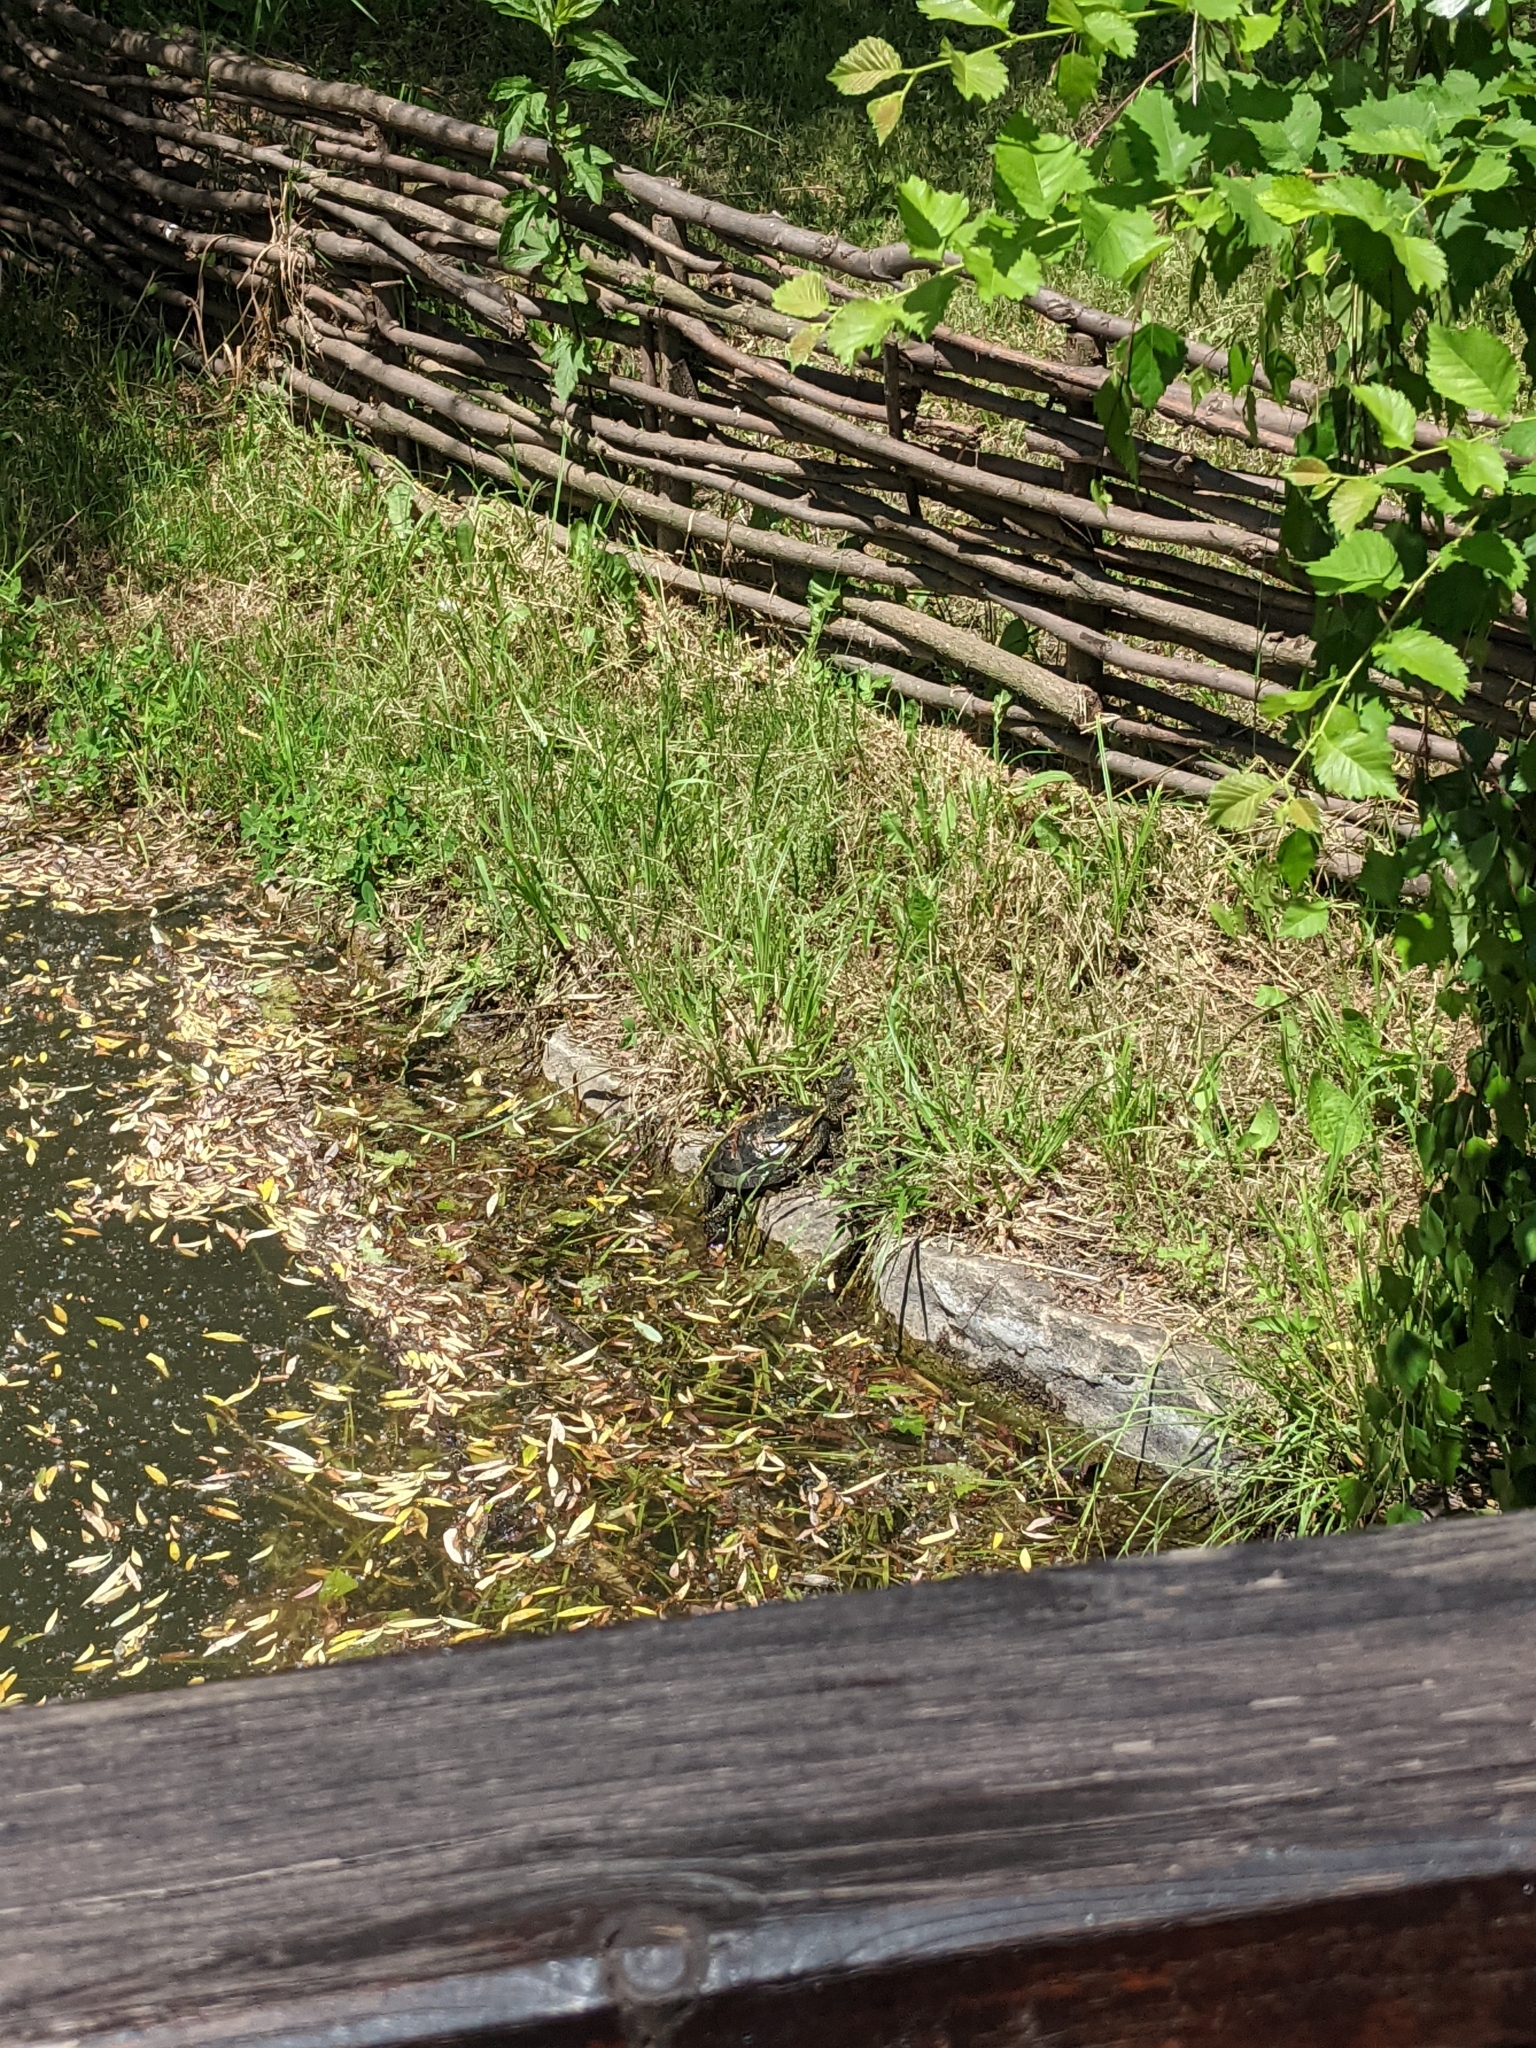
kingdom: Animalia
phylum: Chordata
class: Testudines
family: Emydidae
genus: Emys
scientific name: Emys orbicularis
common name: European pond turtle
